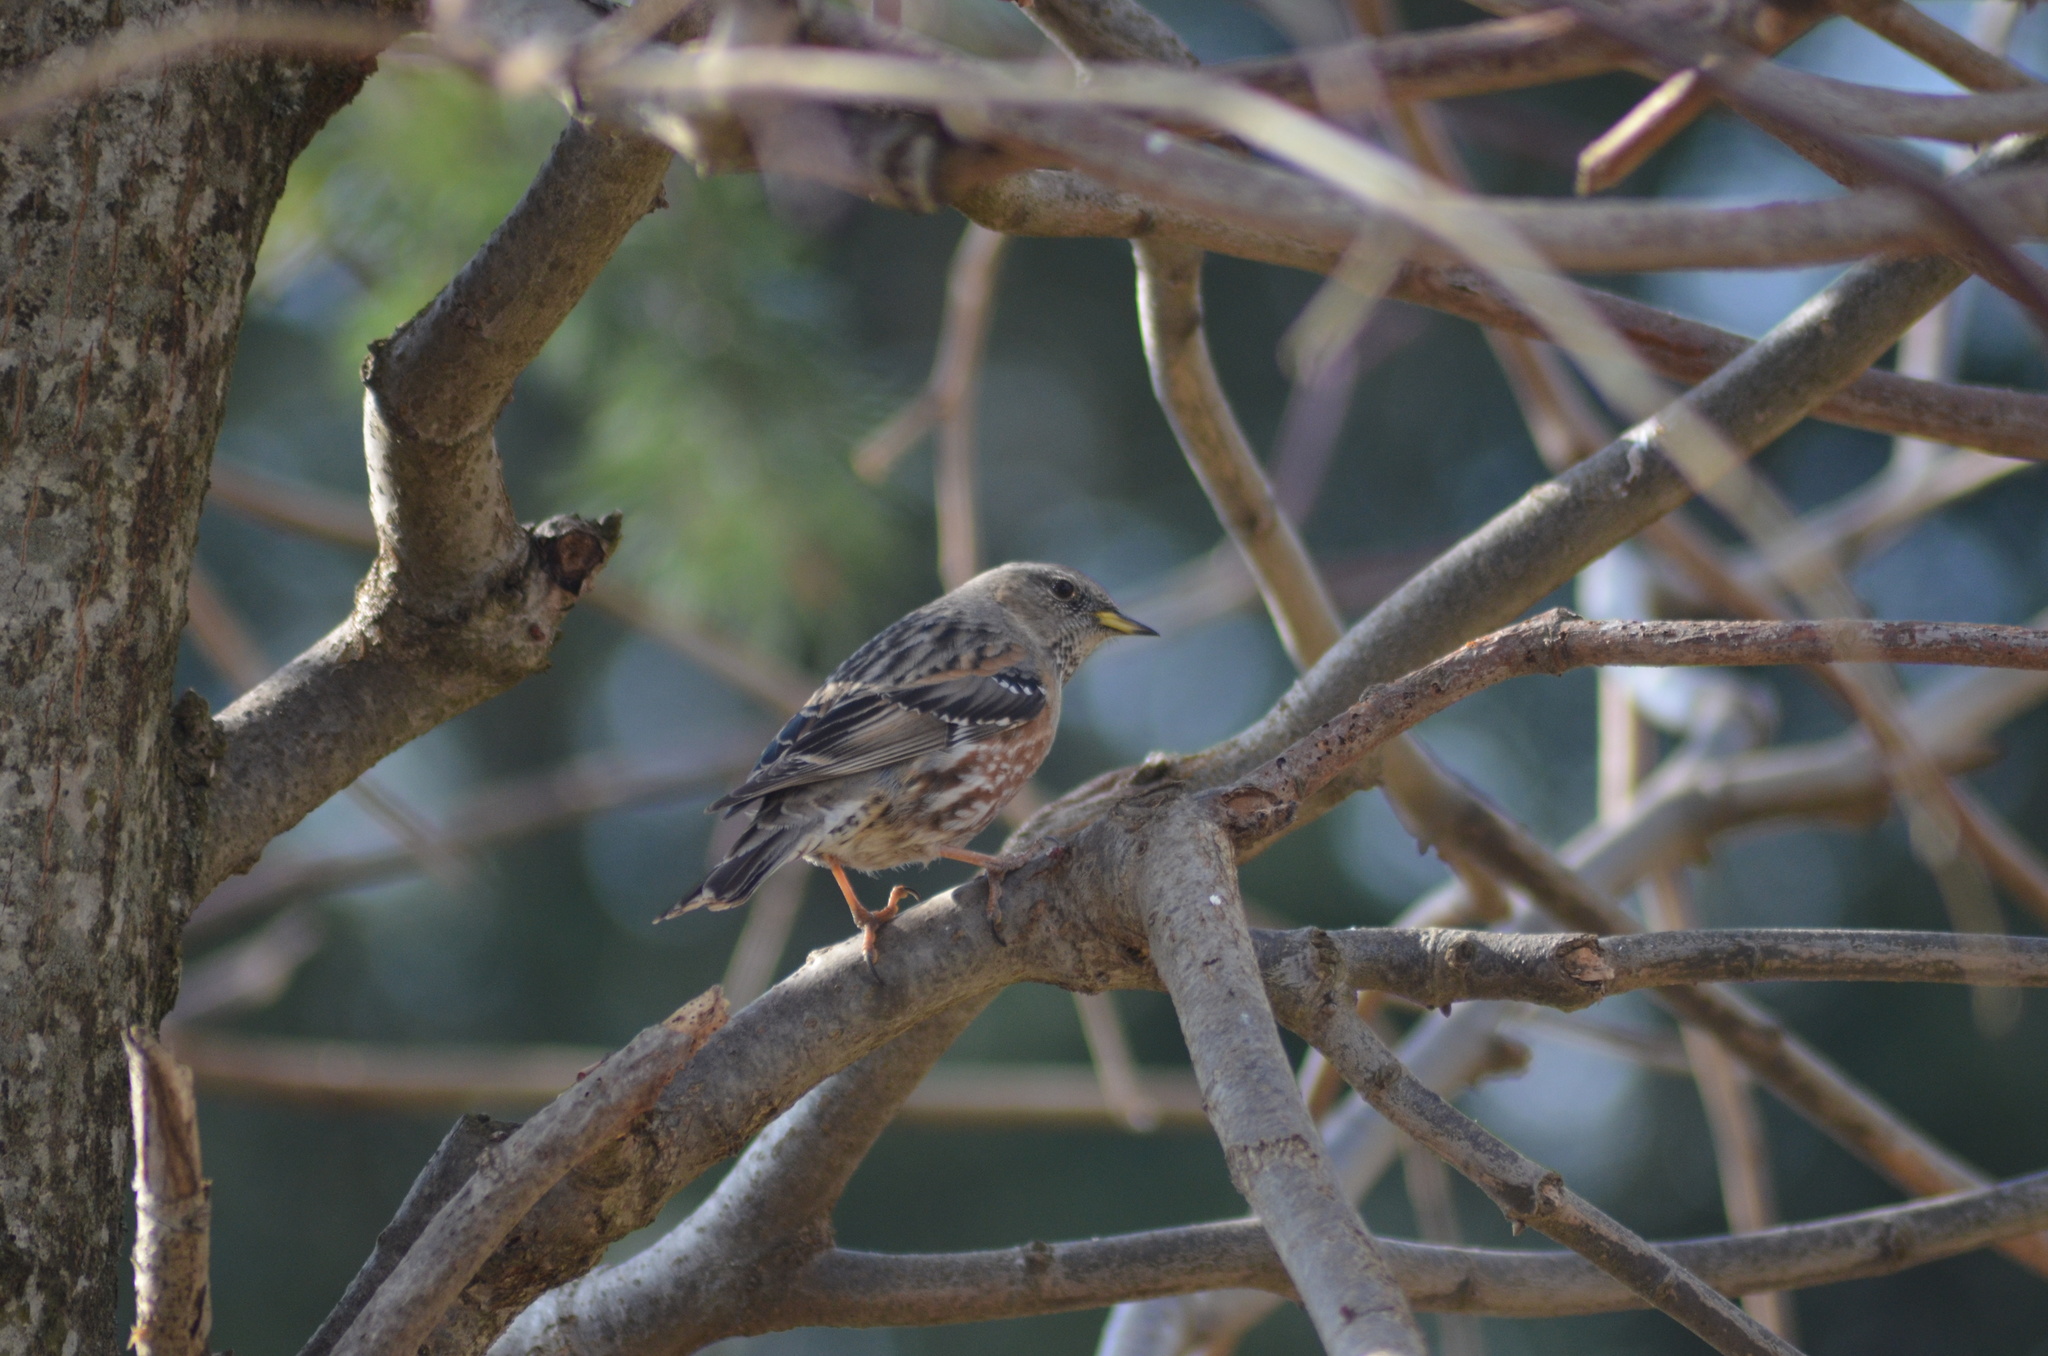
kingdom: Animalia
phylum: Chordata
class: Aves
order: Passeriformes
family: Prunellidae
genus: Prunella
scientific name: Prunella collaris
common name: Alpine accentor
